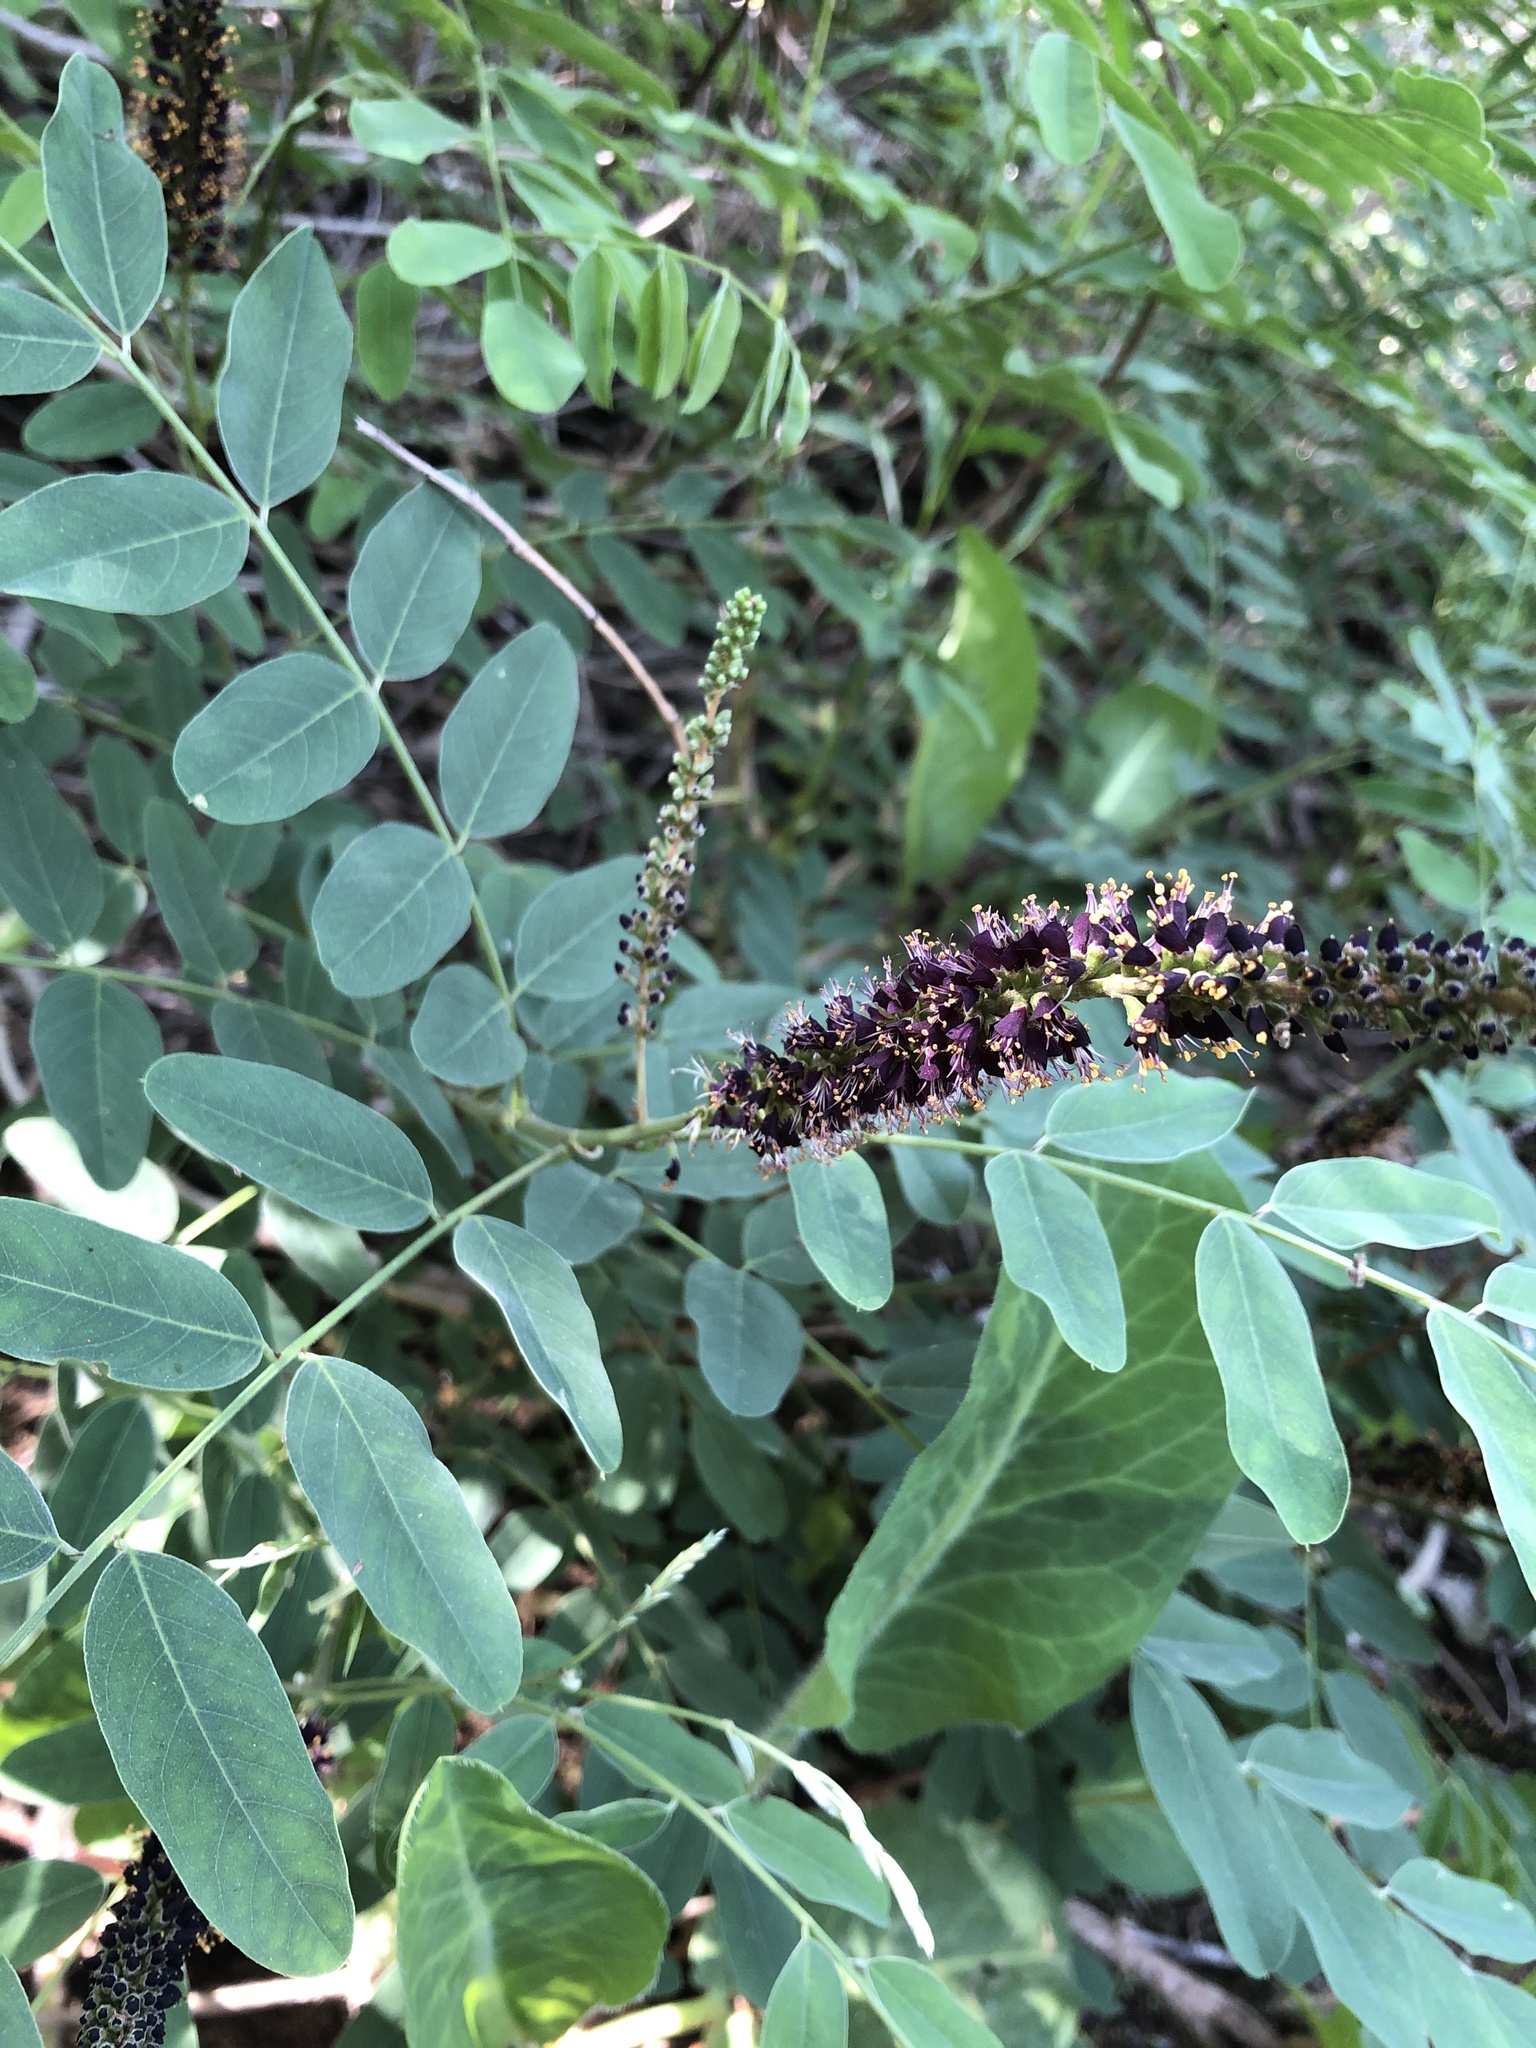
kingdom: Plantae
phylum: Tracheophyta
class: Magnoliopsida
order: Fabales
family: Fabaceae
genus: Amorpha
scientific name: Amorpha fruticosa
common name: False indigo
